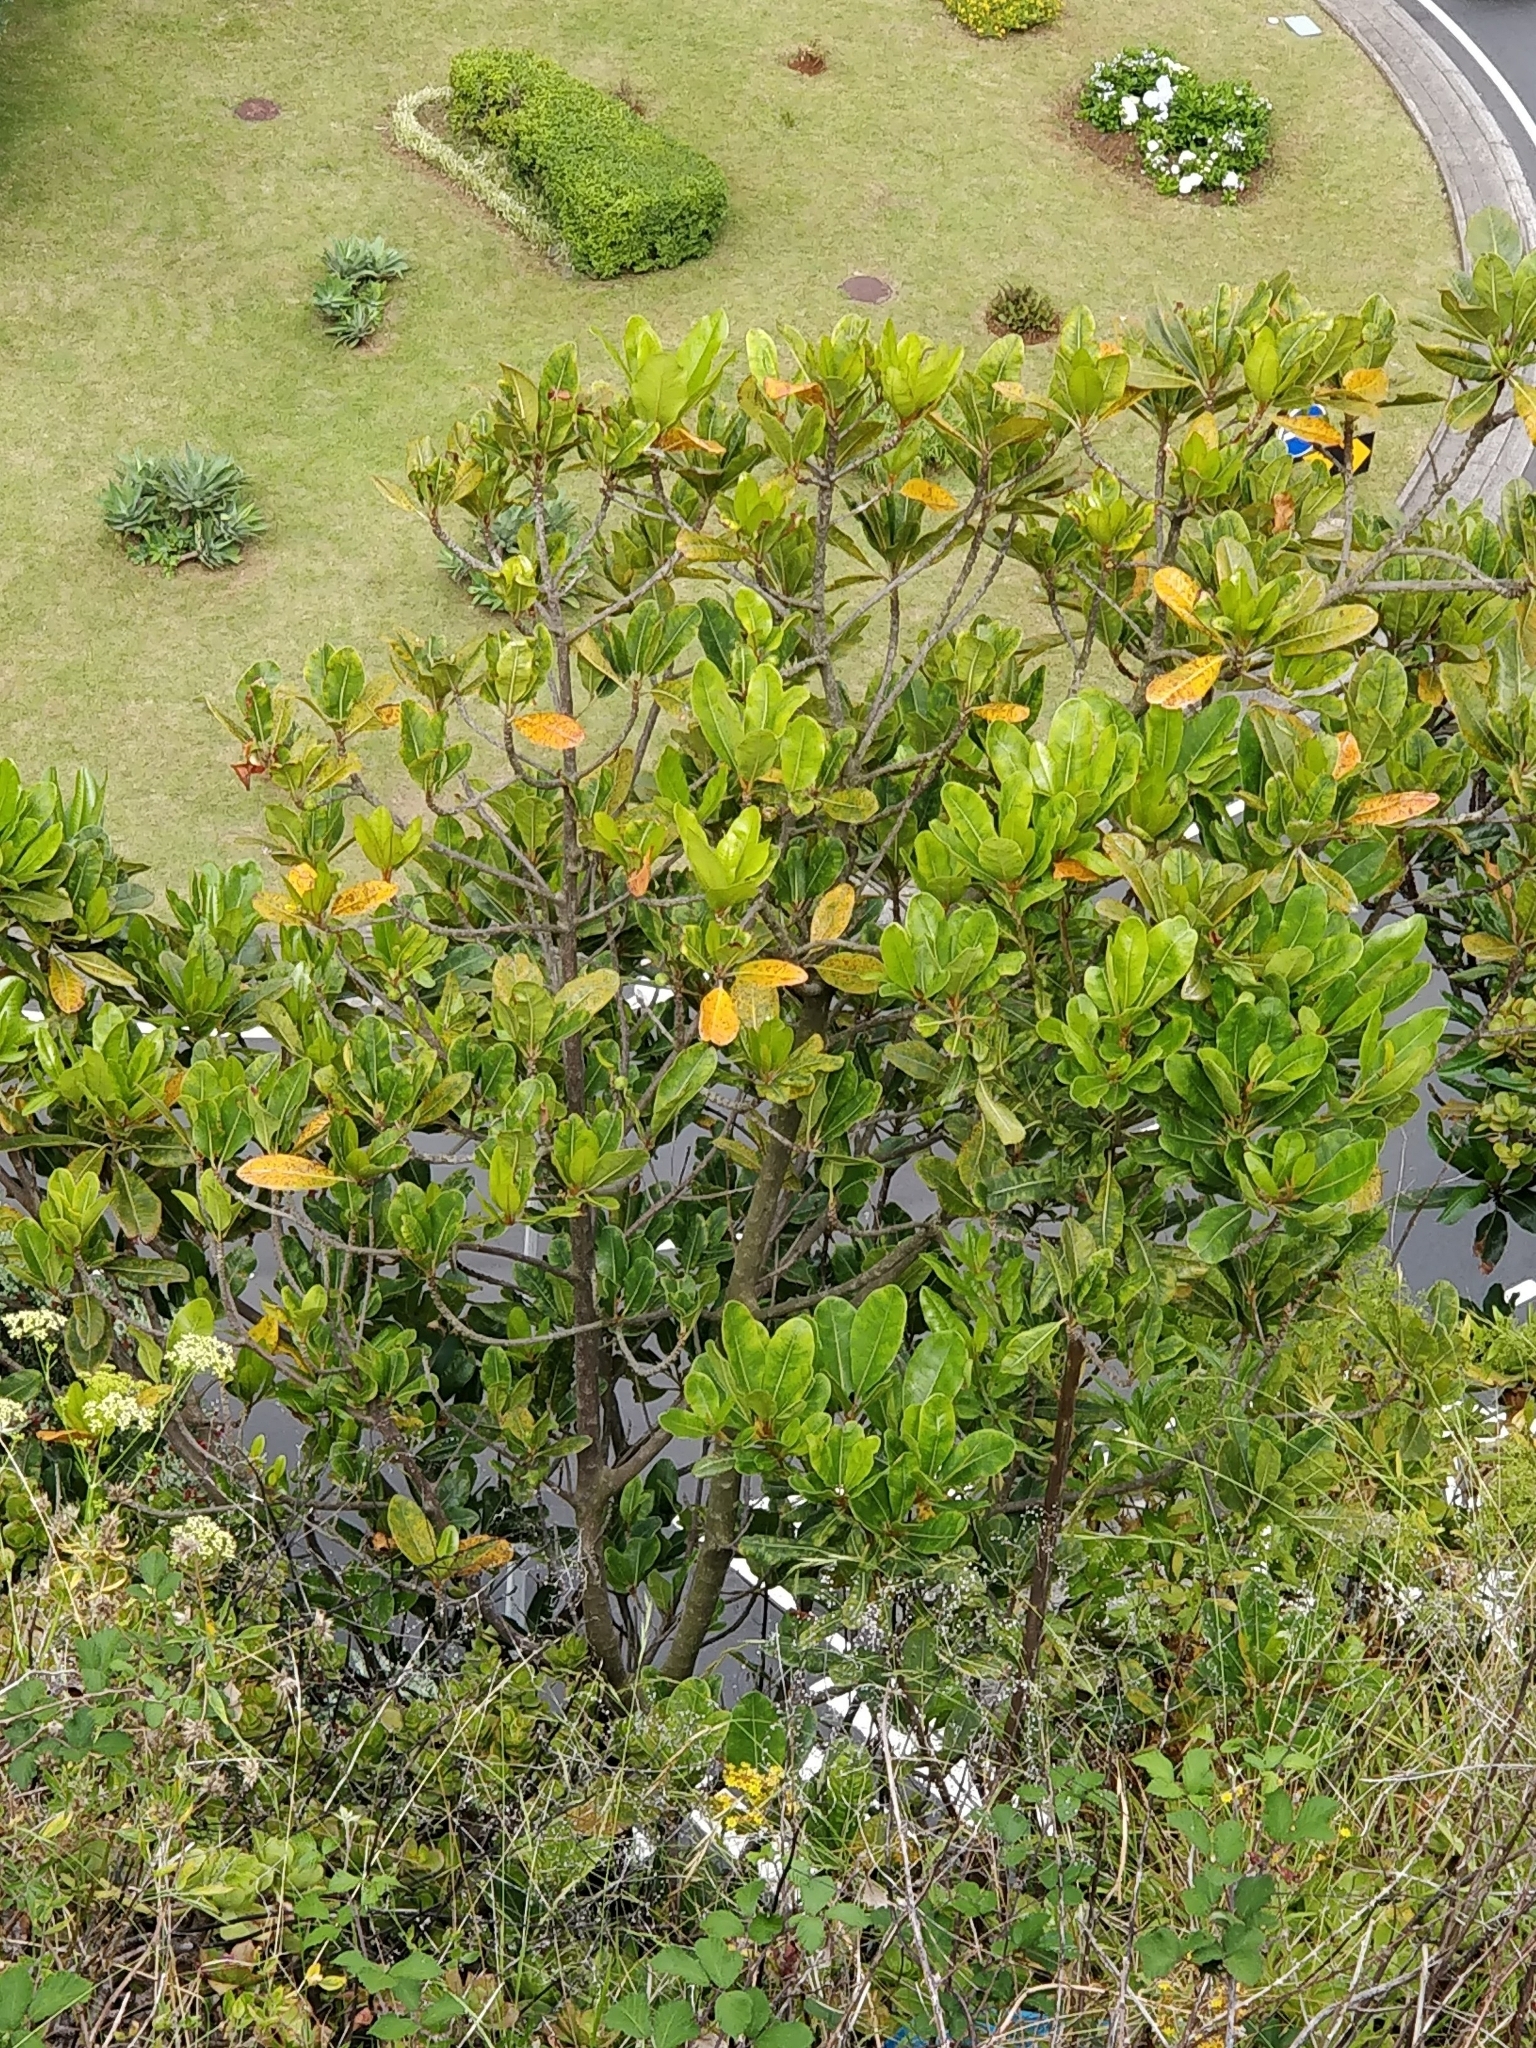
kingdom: Plantae
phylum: Tracheophyta
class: Magnoliopsida
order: Ericales
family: Sapotaceae
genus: Sideroxylon
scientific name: Sideroxylon mirmulans
